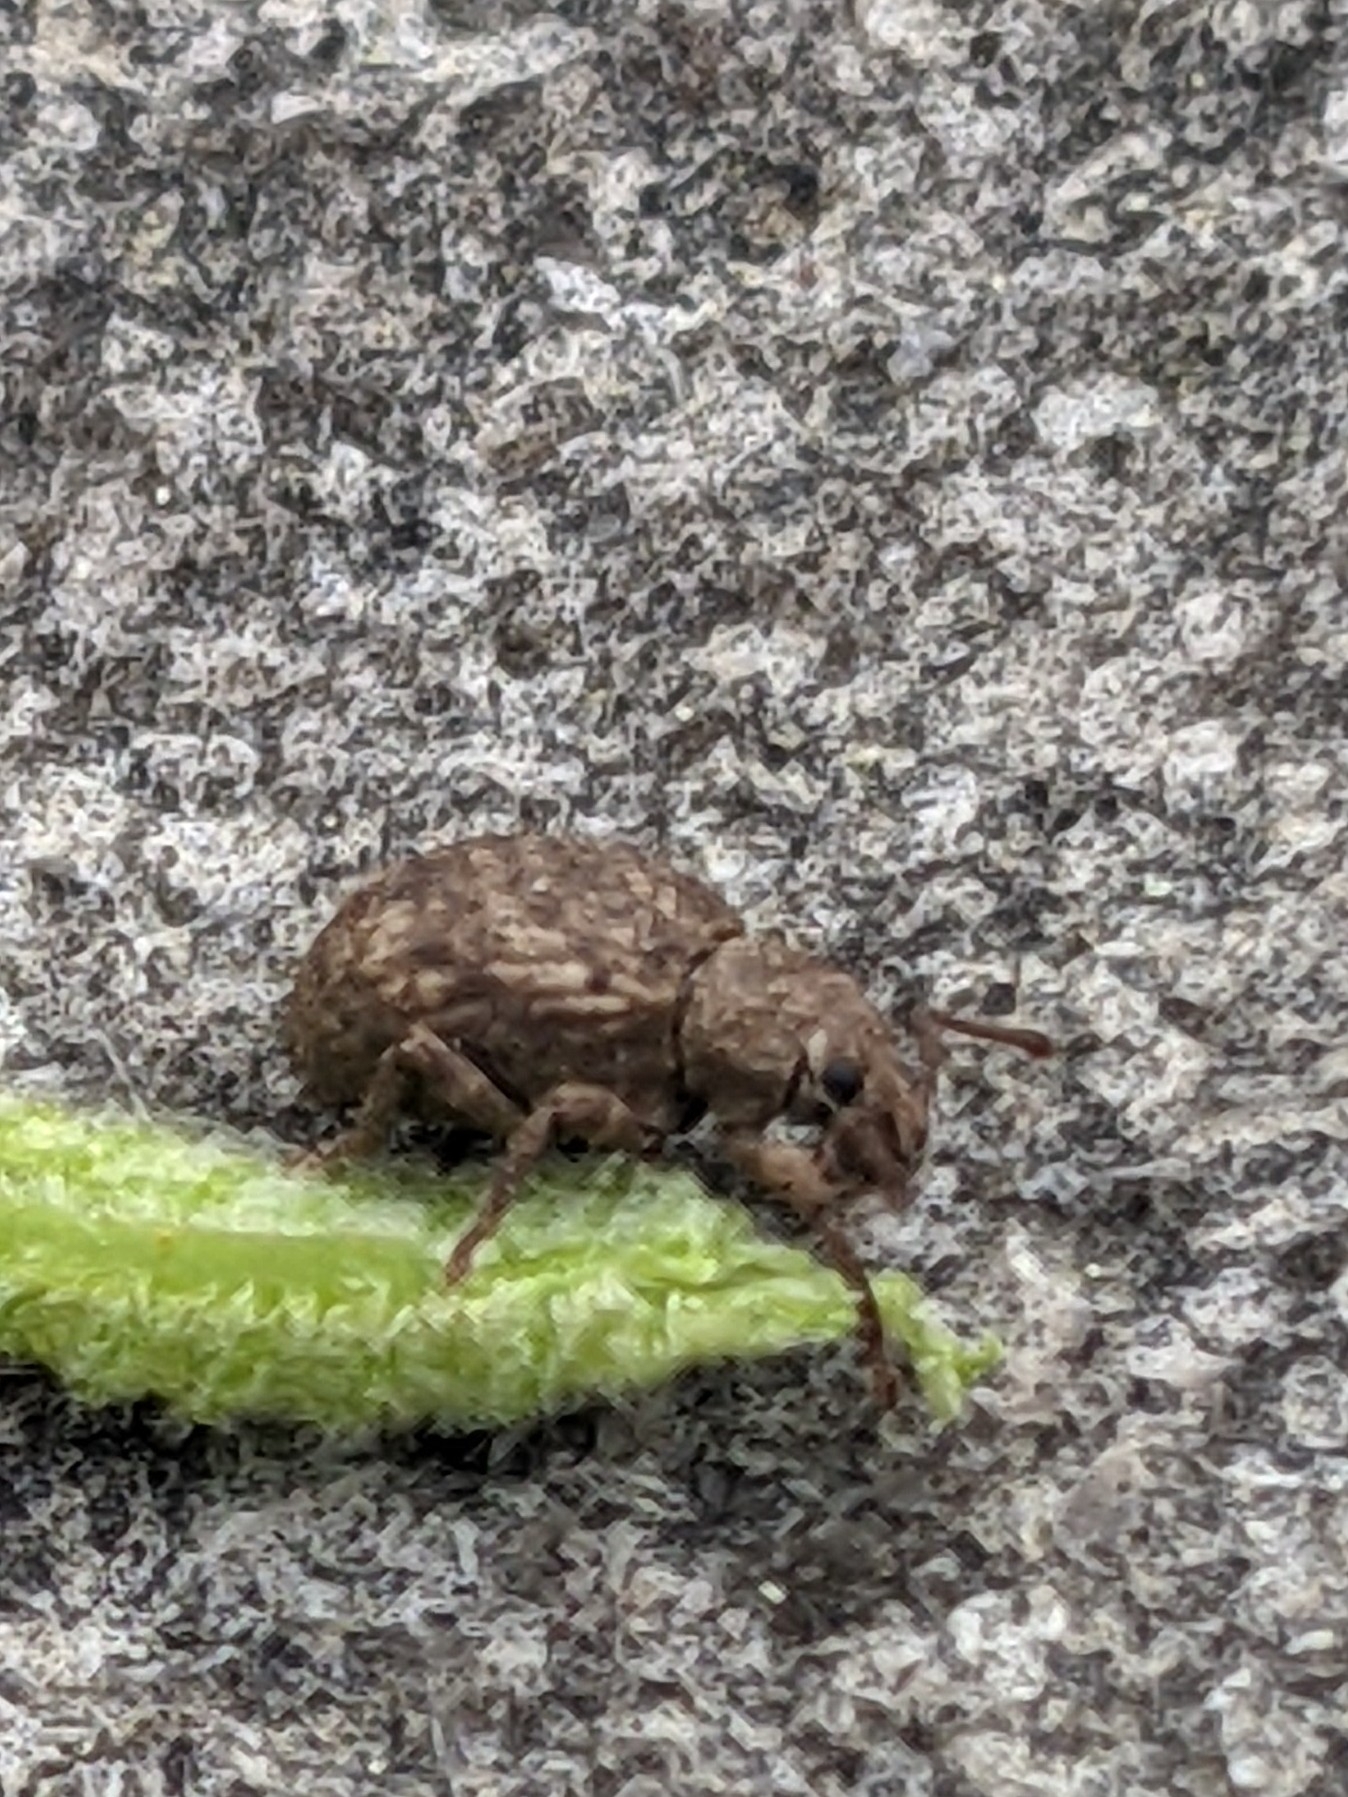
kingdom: Animalia
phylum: Arthropoda
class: Insecta
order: Coleoptera
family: Curculionidae
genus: Myosides
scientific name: Myosides seriehispidus
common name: Broadnosed weevil
